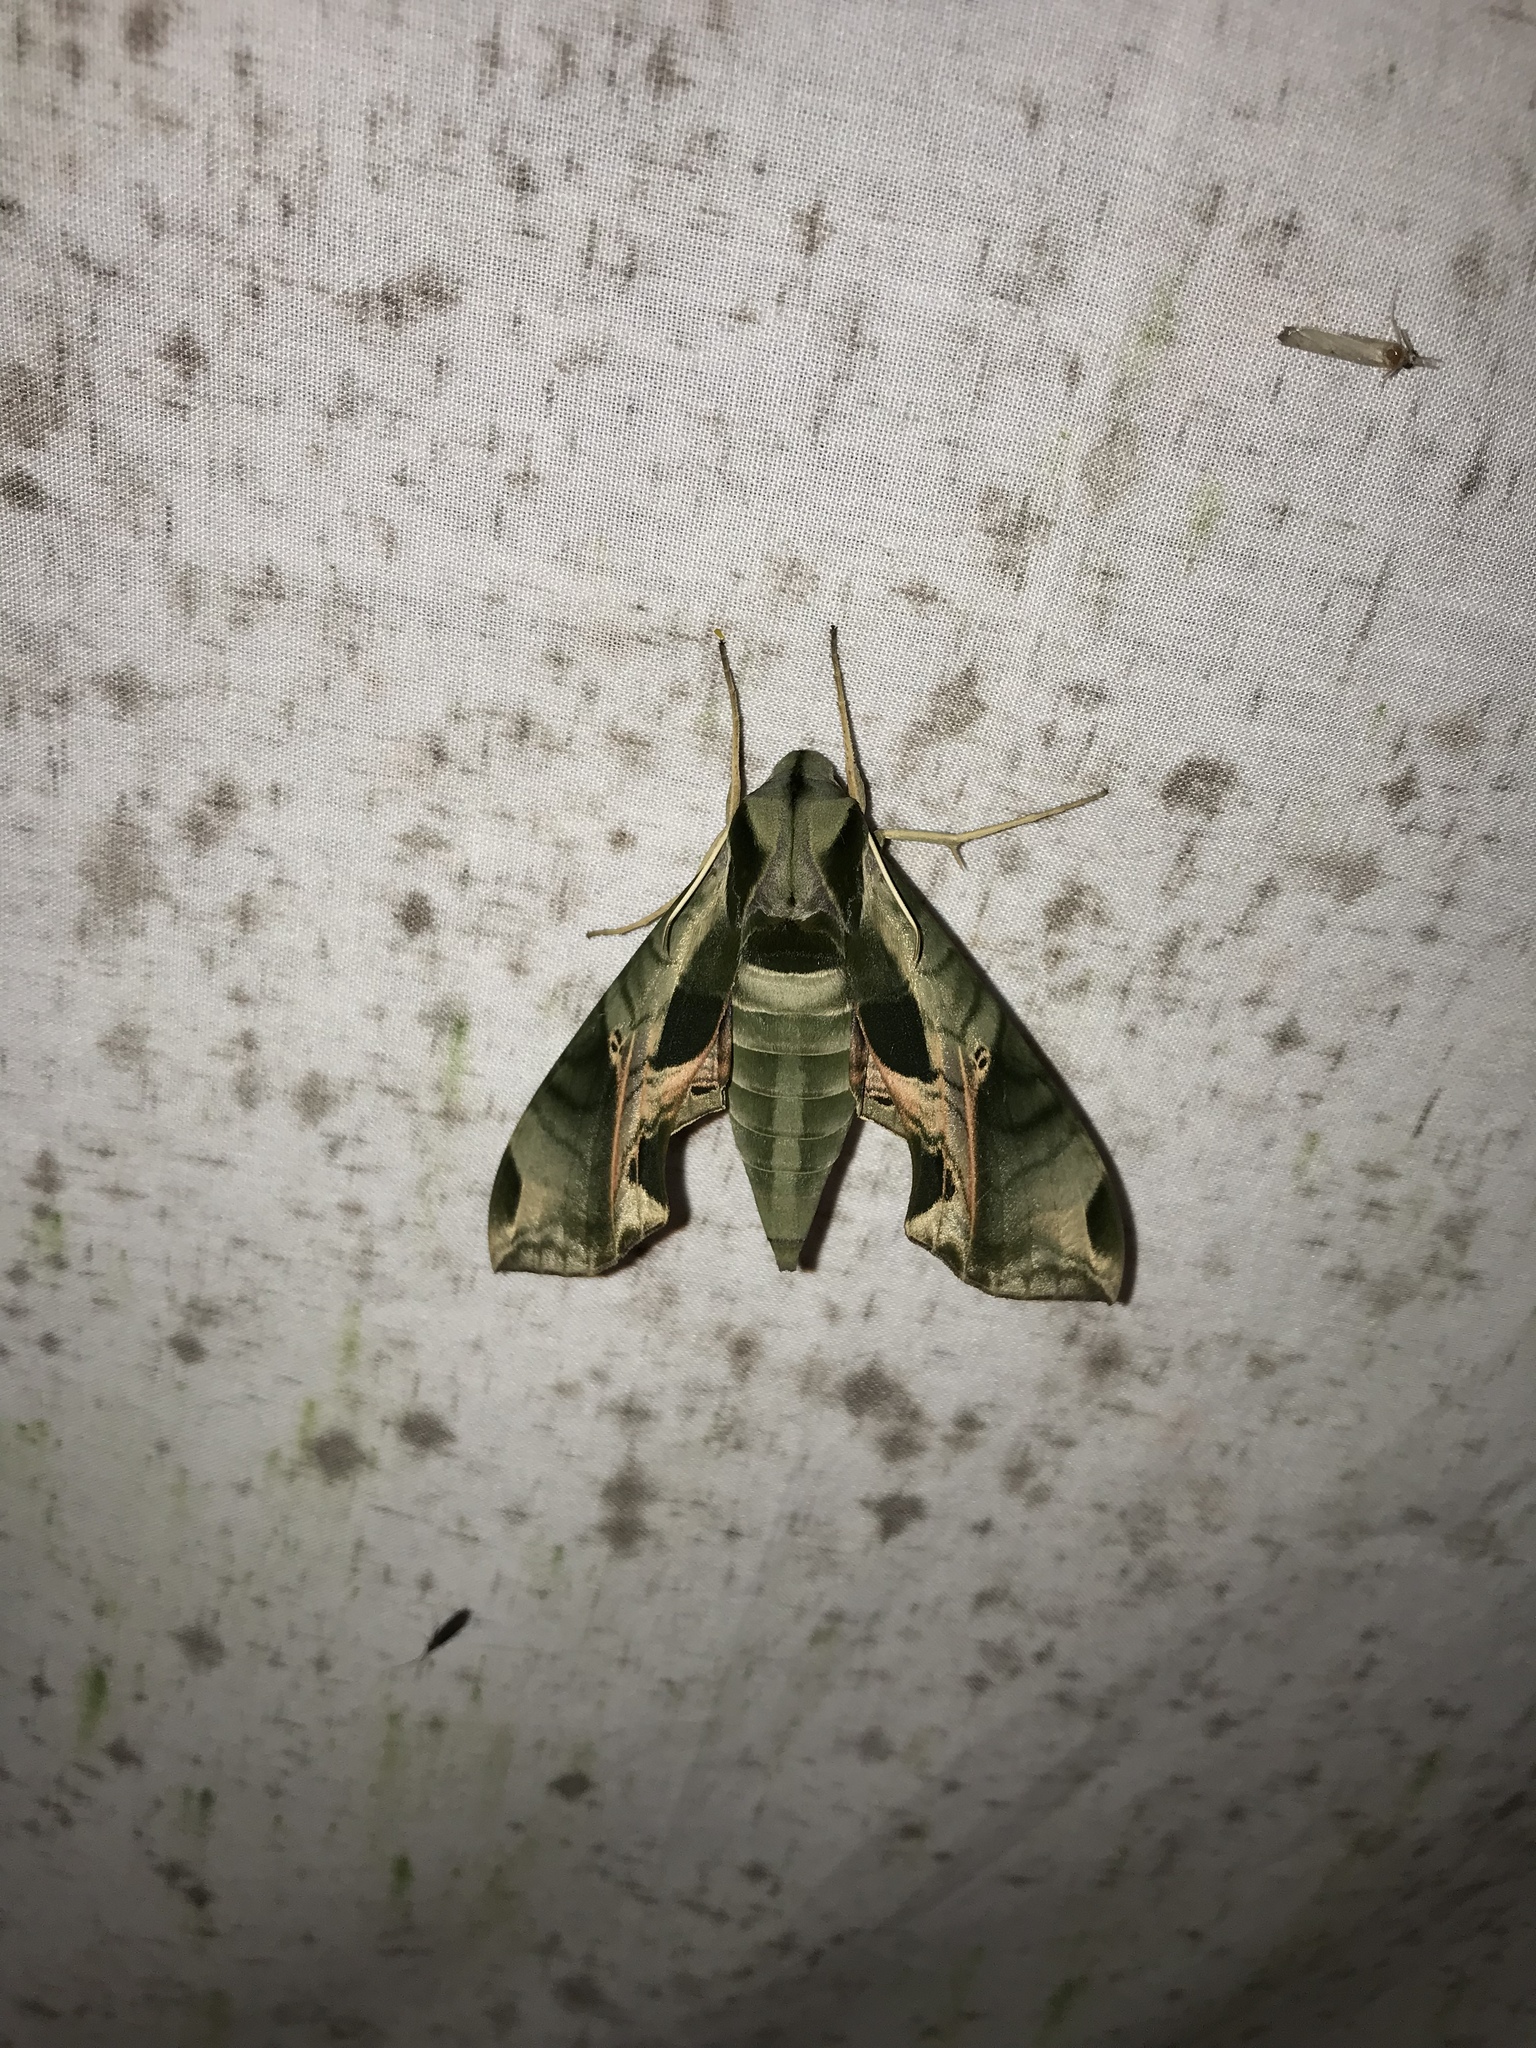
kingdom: Animalia
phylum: Arthropoda
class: Insecta
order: Lepidoptera
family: Sphingidae
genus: Eumorpha
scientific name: Eumorpha pandorus
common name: Pandora sphinx
